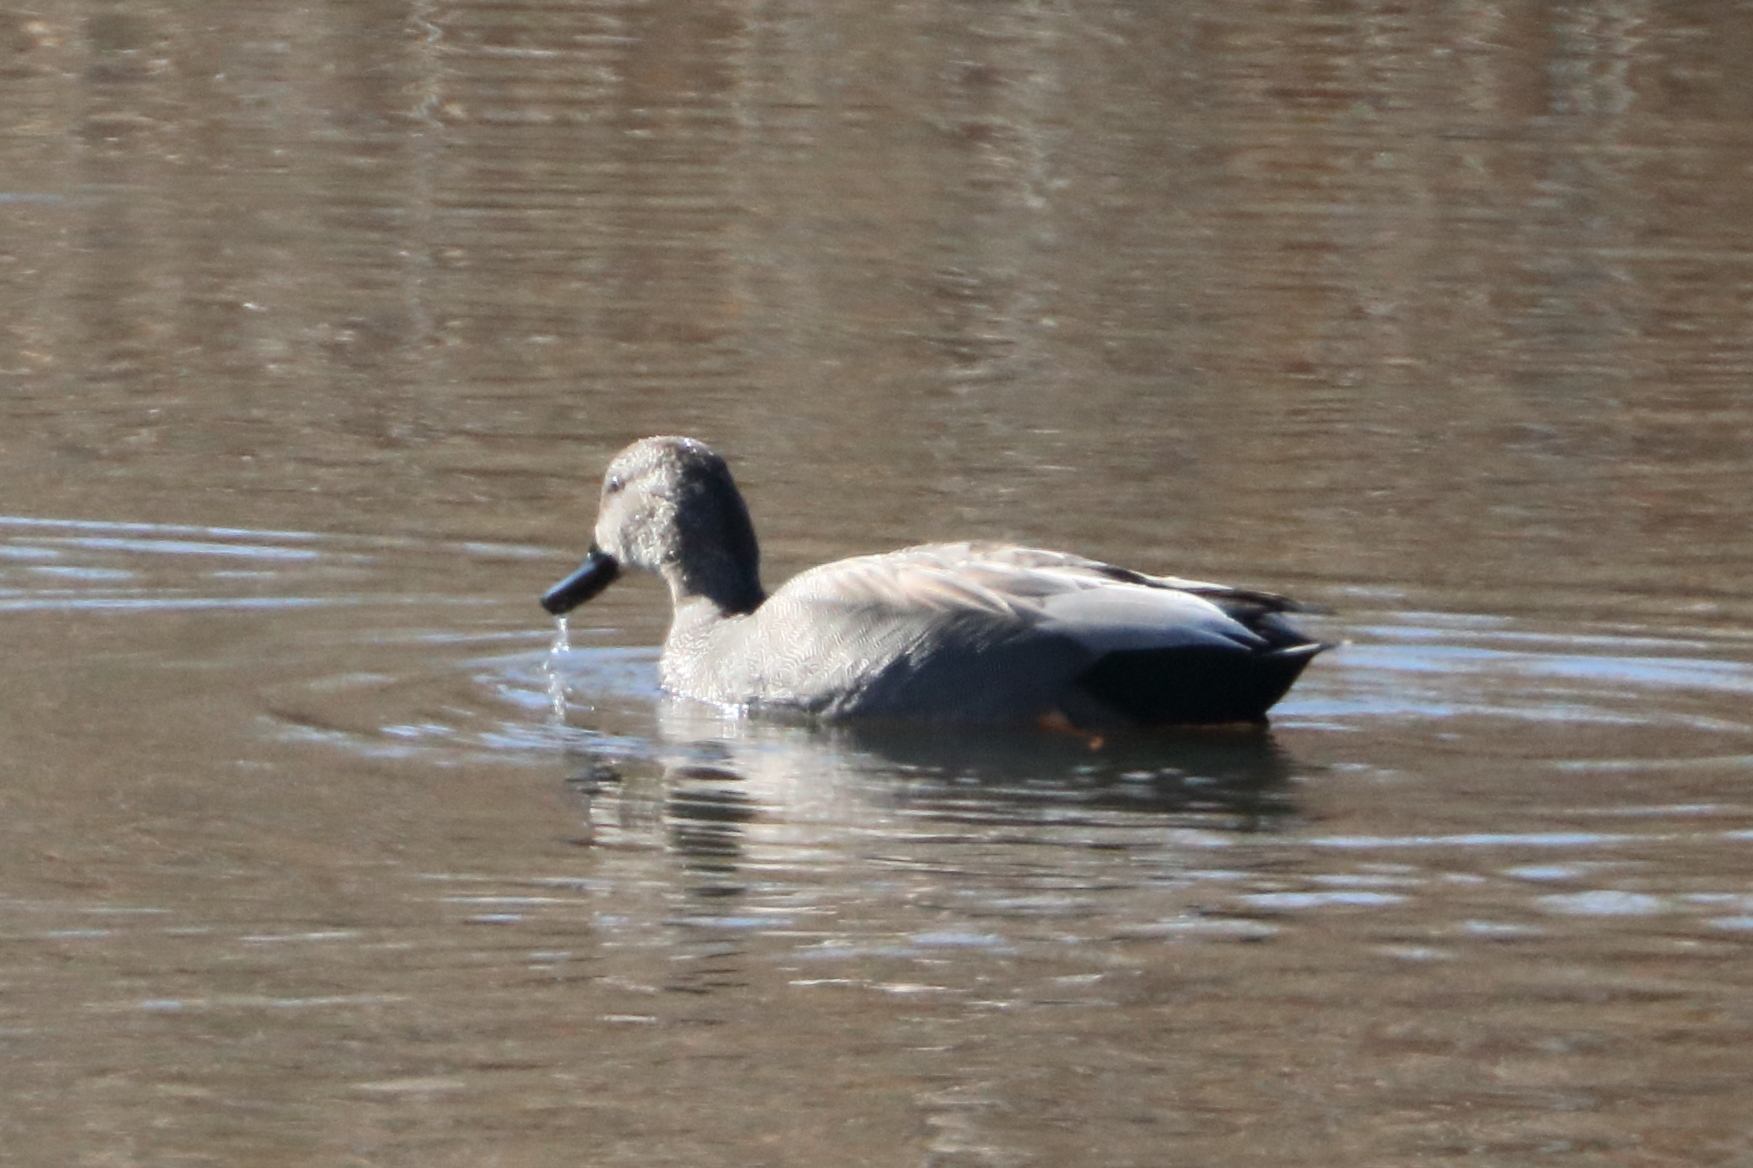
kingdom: Animalia
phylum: Chordata
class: Aves
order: Anseriformes
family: Anatidae
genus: Mareca
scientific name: Mareca strepera
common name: Gadwall
